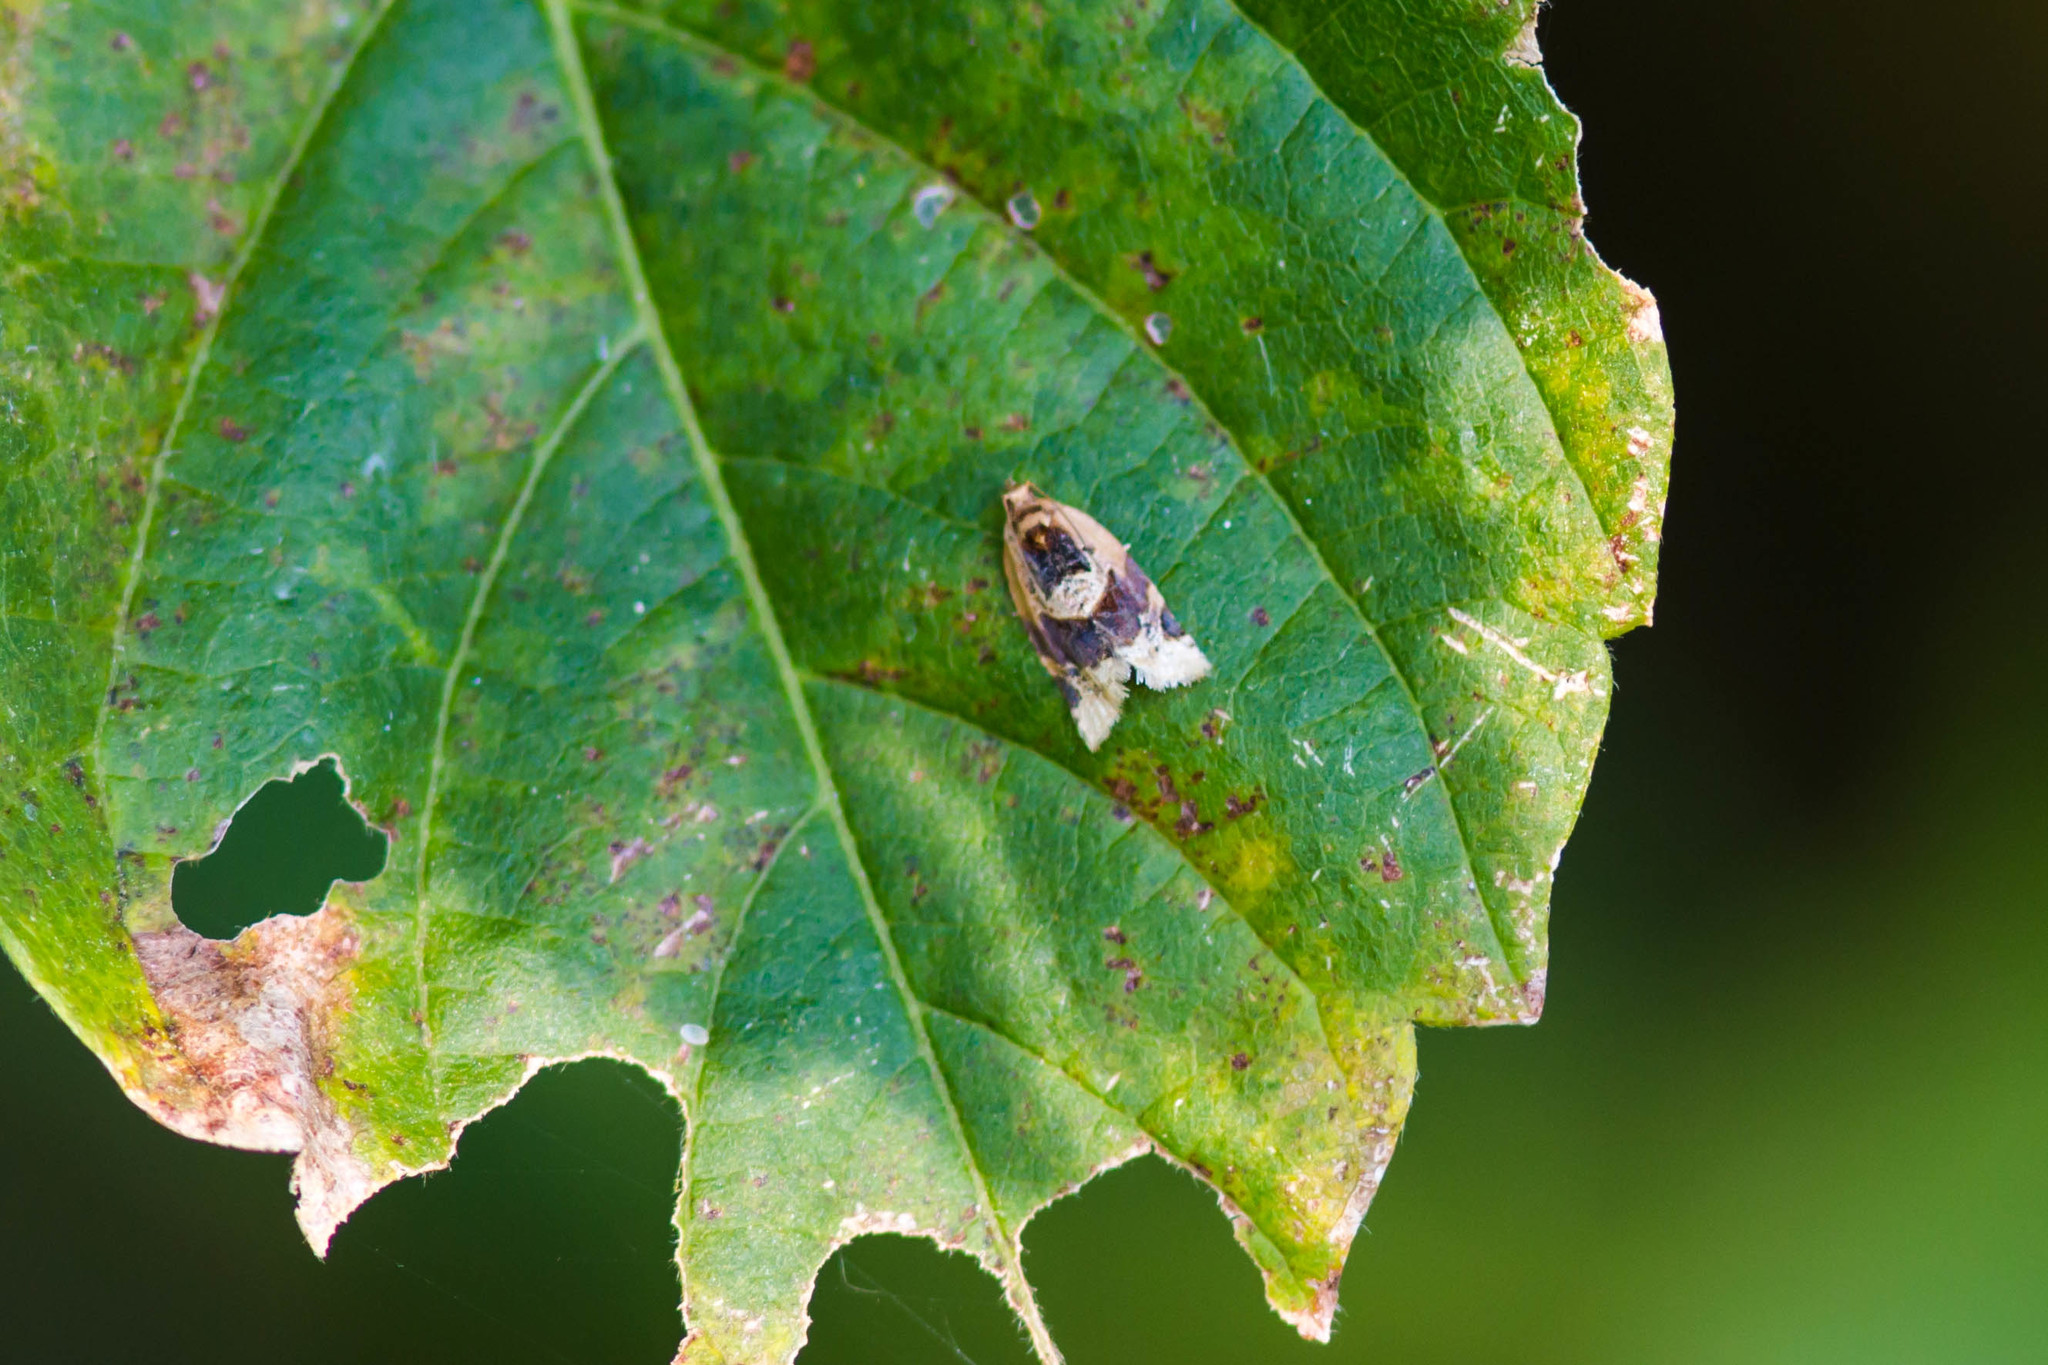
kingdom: Animalia
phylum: Arthropoda
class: Insecta
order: Lepidoptera
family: Tortricidae
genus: Argyrotaenia
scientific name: Argyrotaenia velutinana
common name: Red-banded leafroller moth
